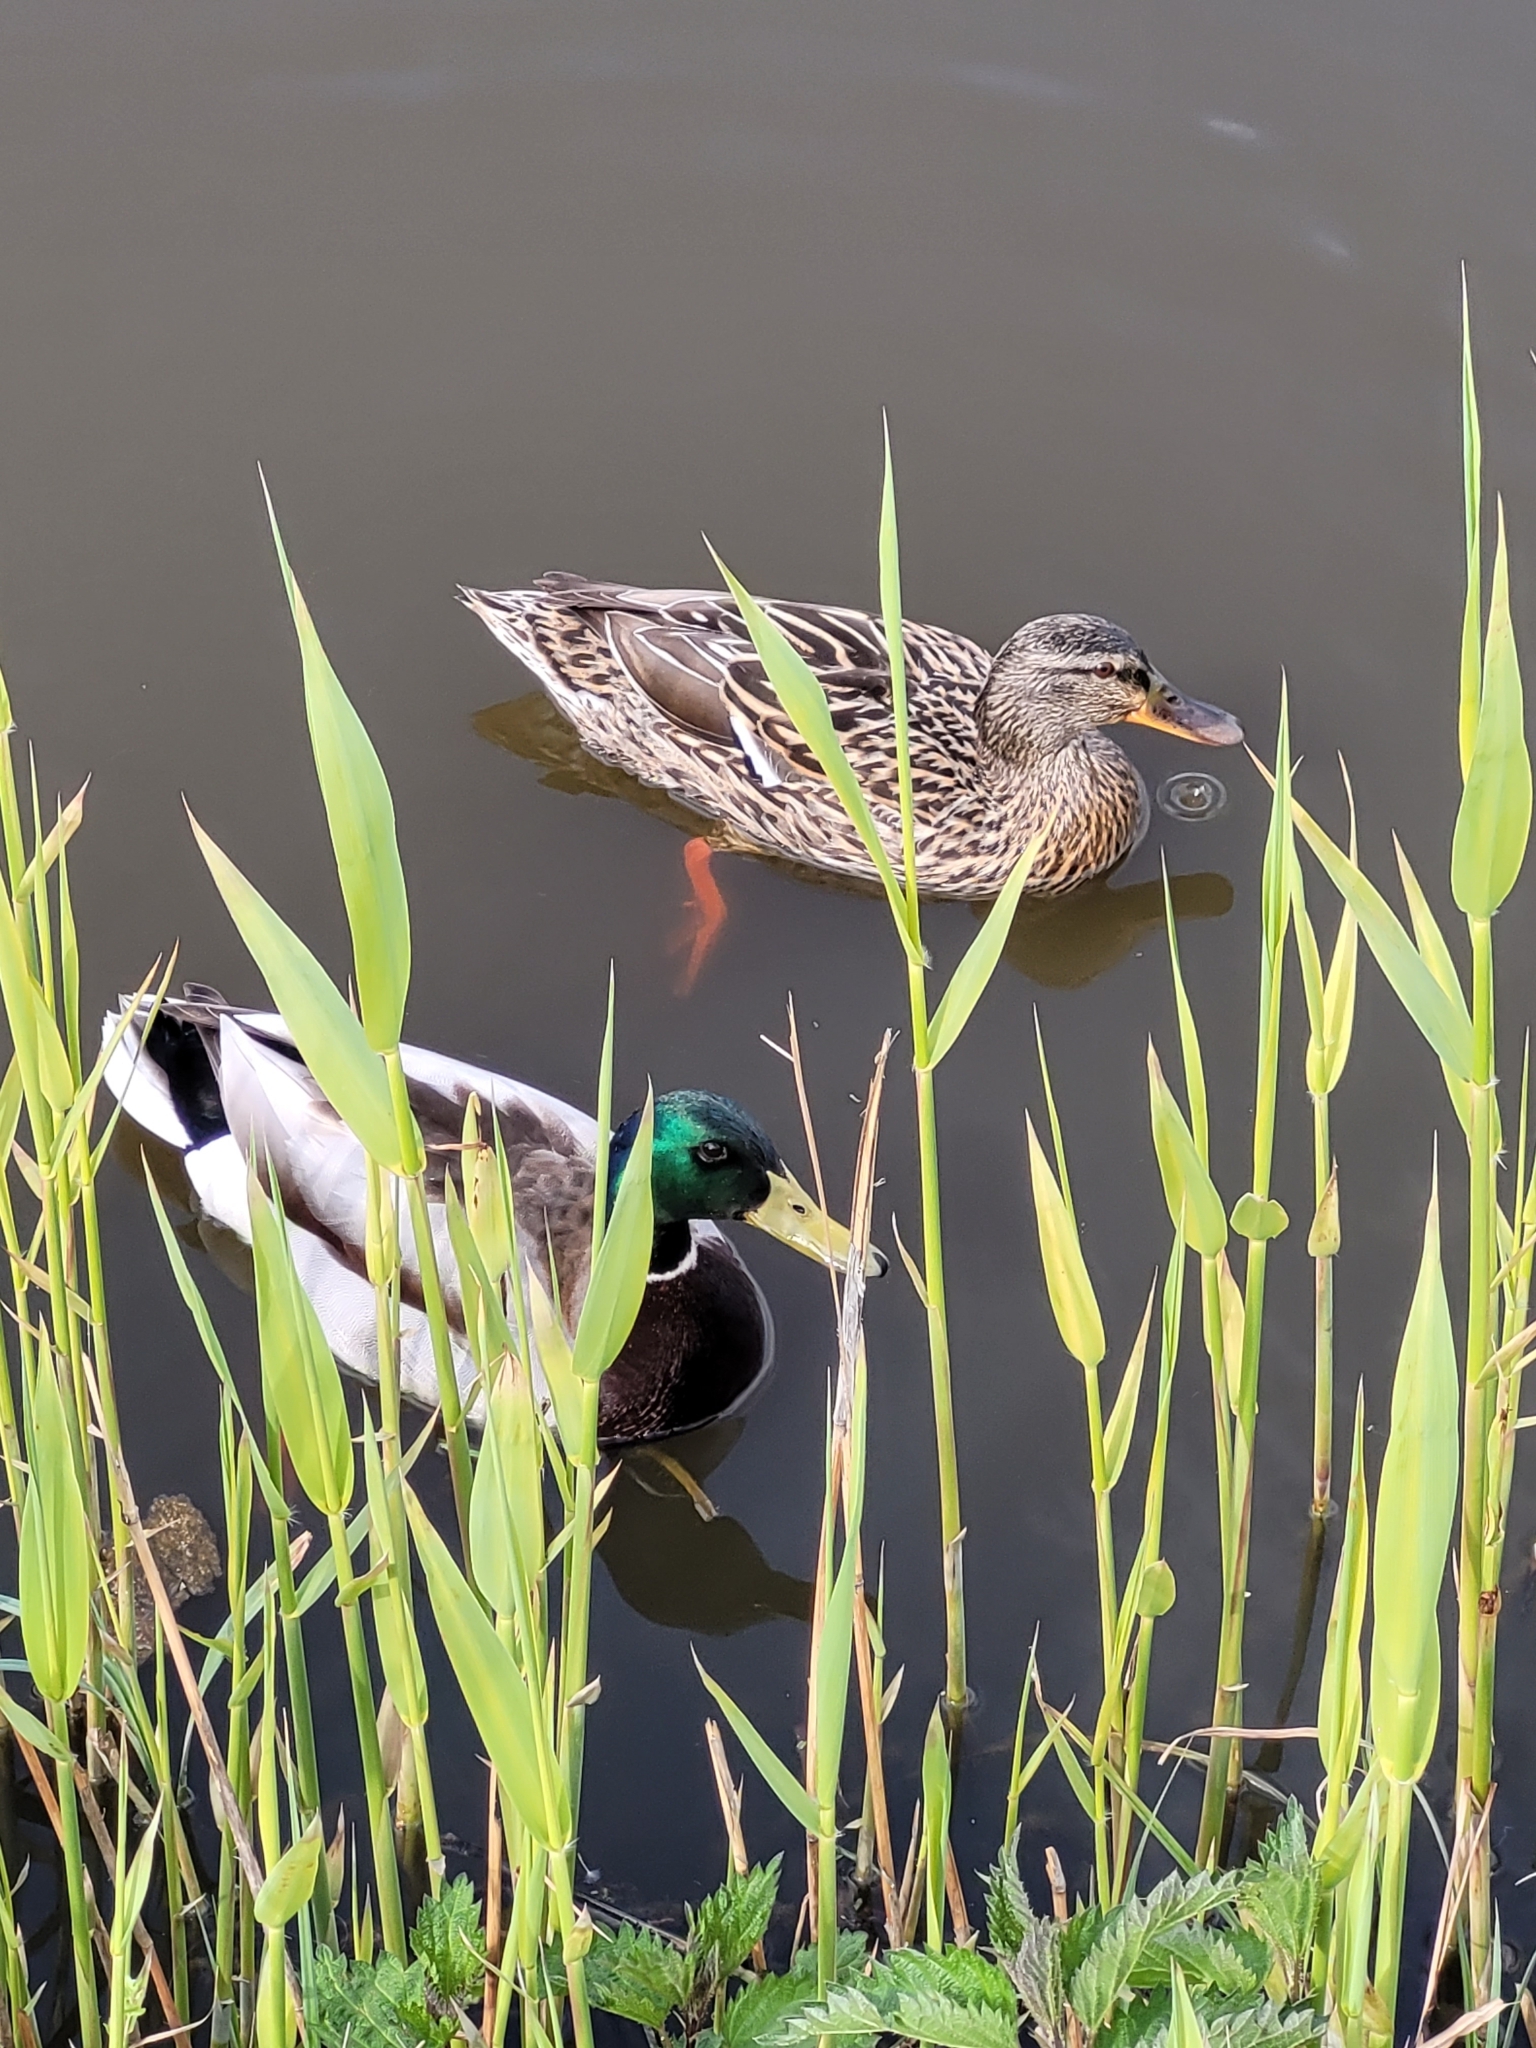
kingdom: Animalia
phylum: Chordata
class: Aves
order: Anseriformes
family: Anatidae
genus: Anas
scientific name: Anas platyrhynchos
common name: Mallard
